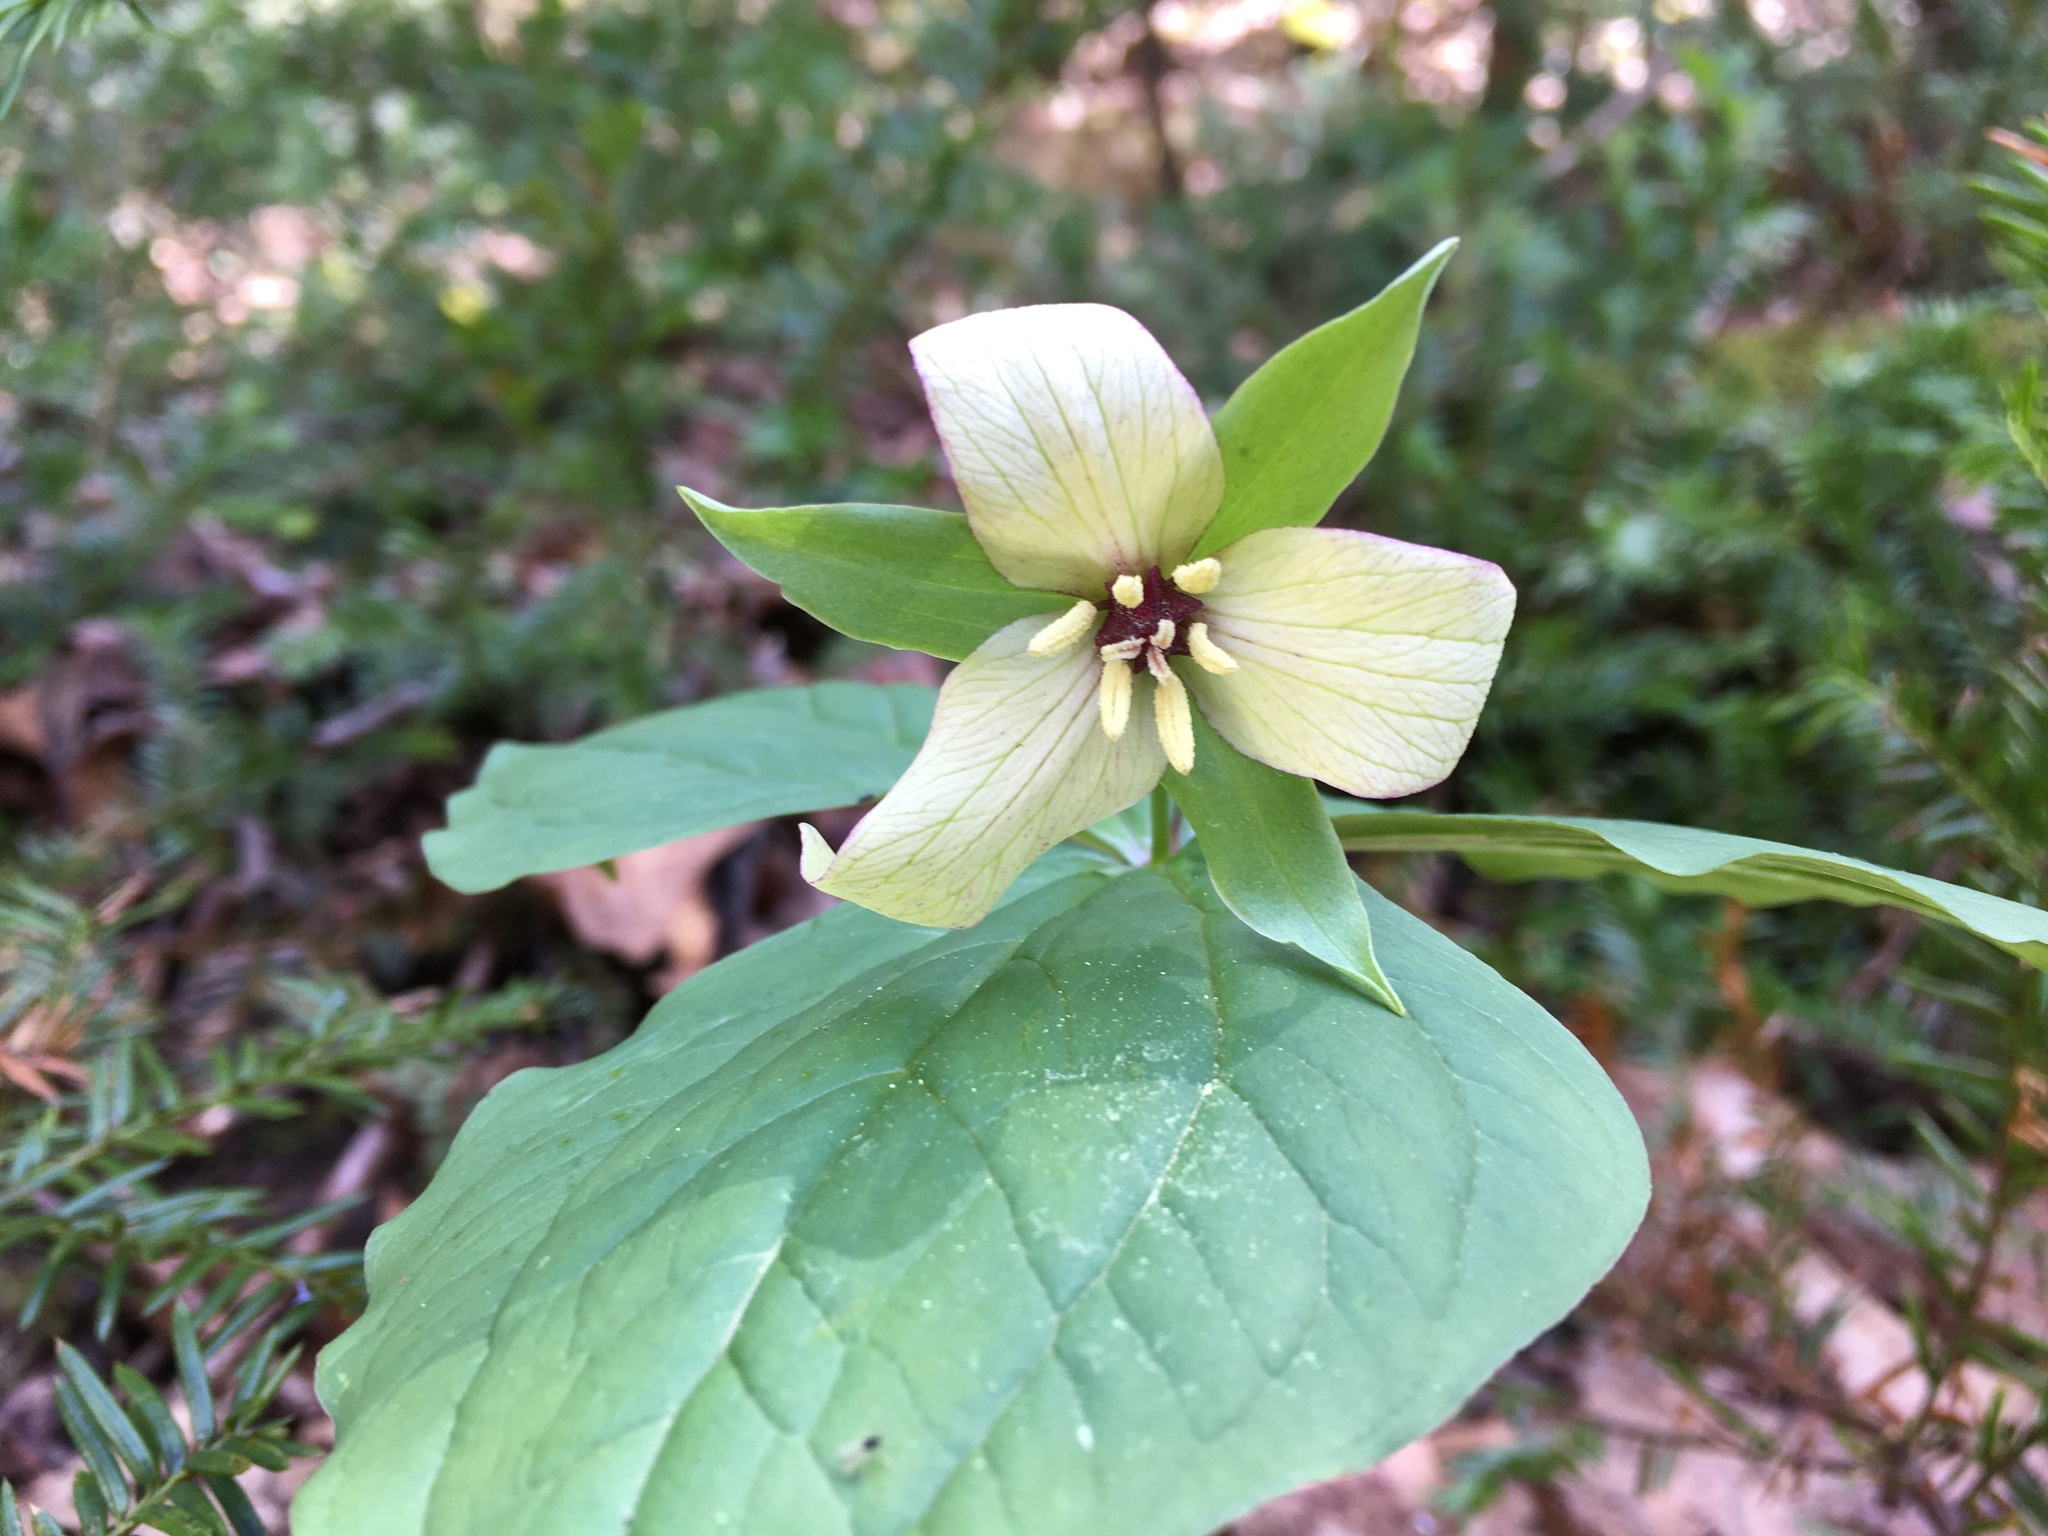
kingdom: Plantae
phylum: Tracheophyta
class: Liliopsida
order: Liliales
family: Melanthiaceae
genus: Trillium
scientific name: Trillium erectum
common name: Purple trillium
